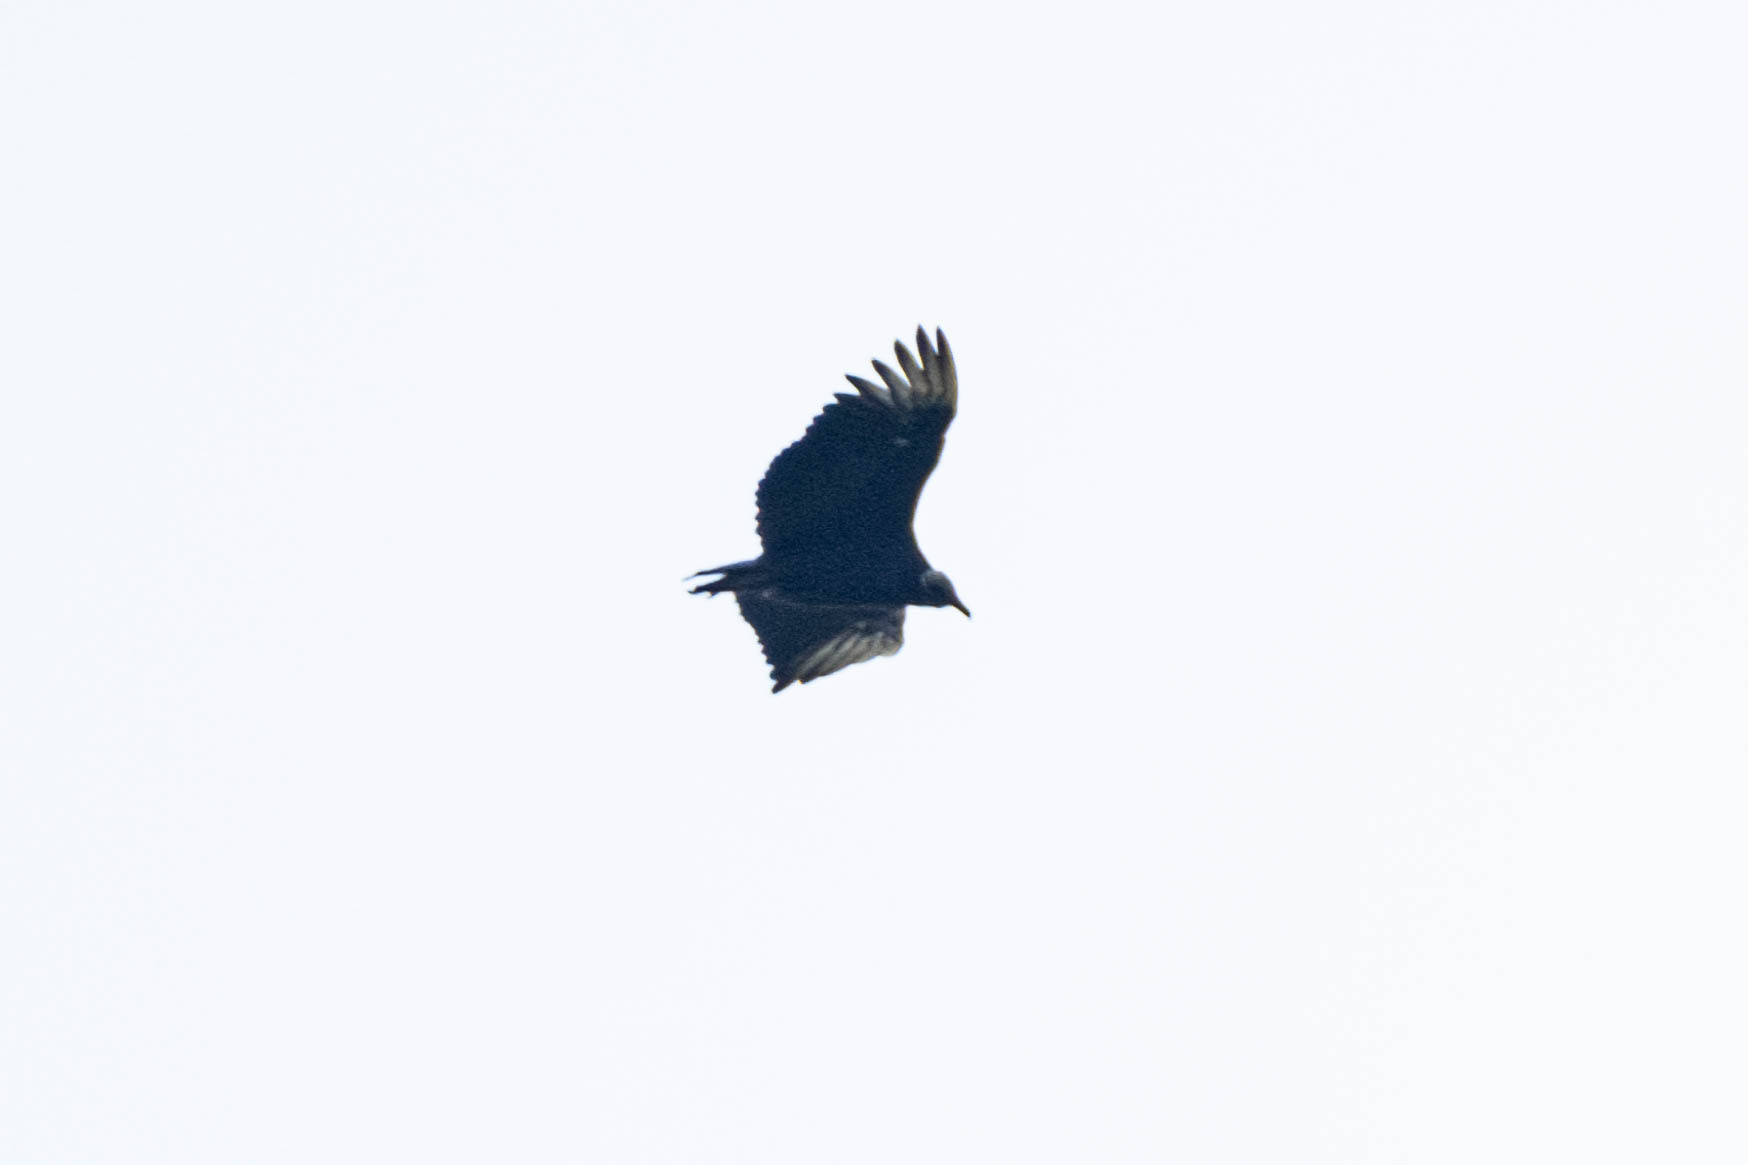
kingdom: Animalia
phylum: Chordata
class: Aves
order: Accipitriformes
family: Cathartidae
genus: Coragyps
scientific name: Coragyps atratus
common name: Black vulture
